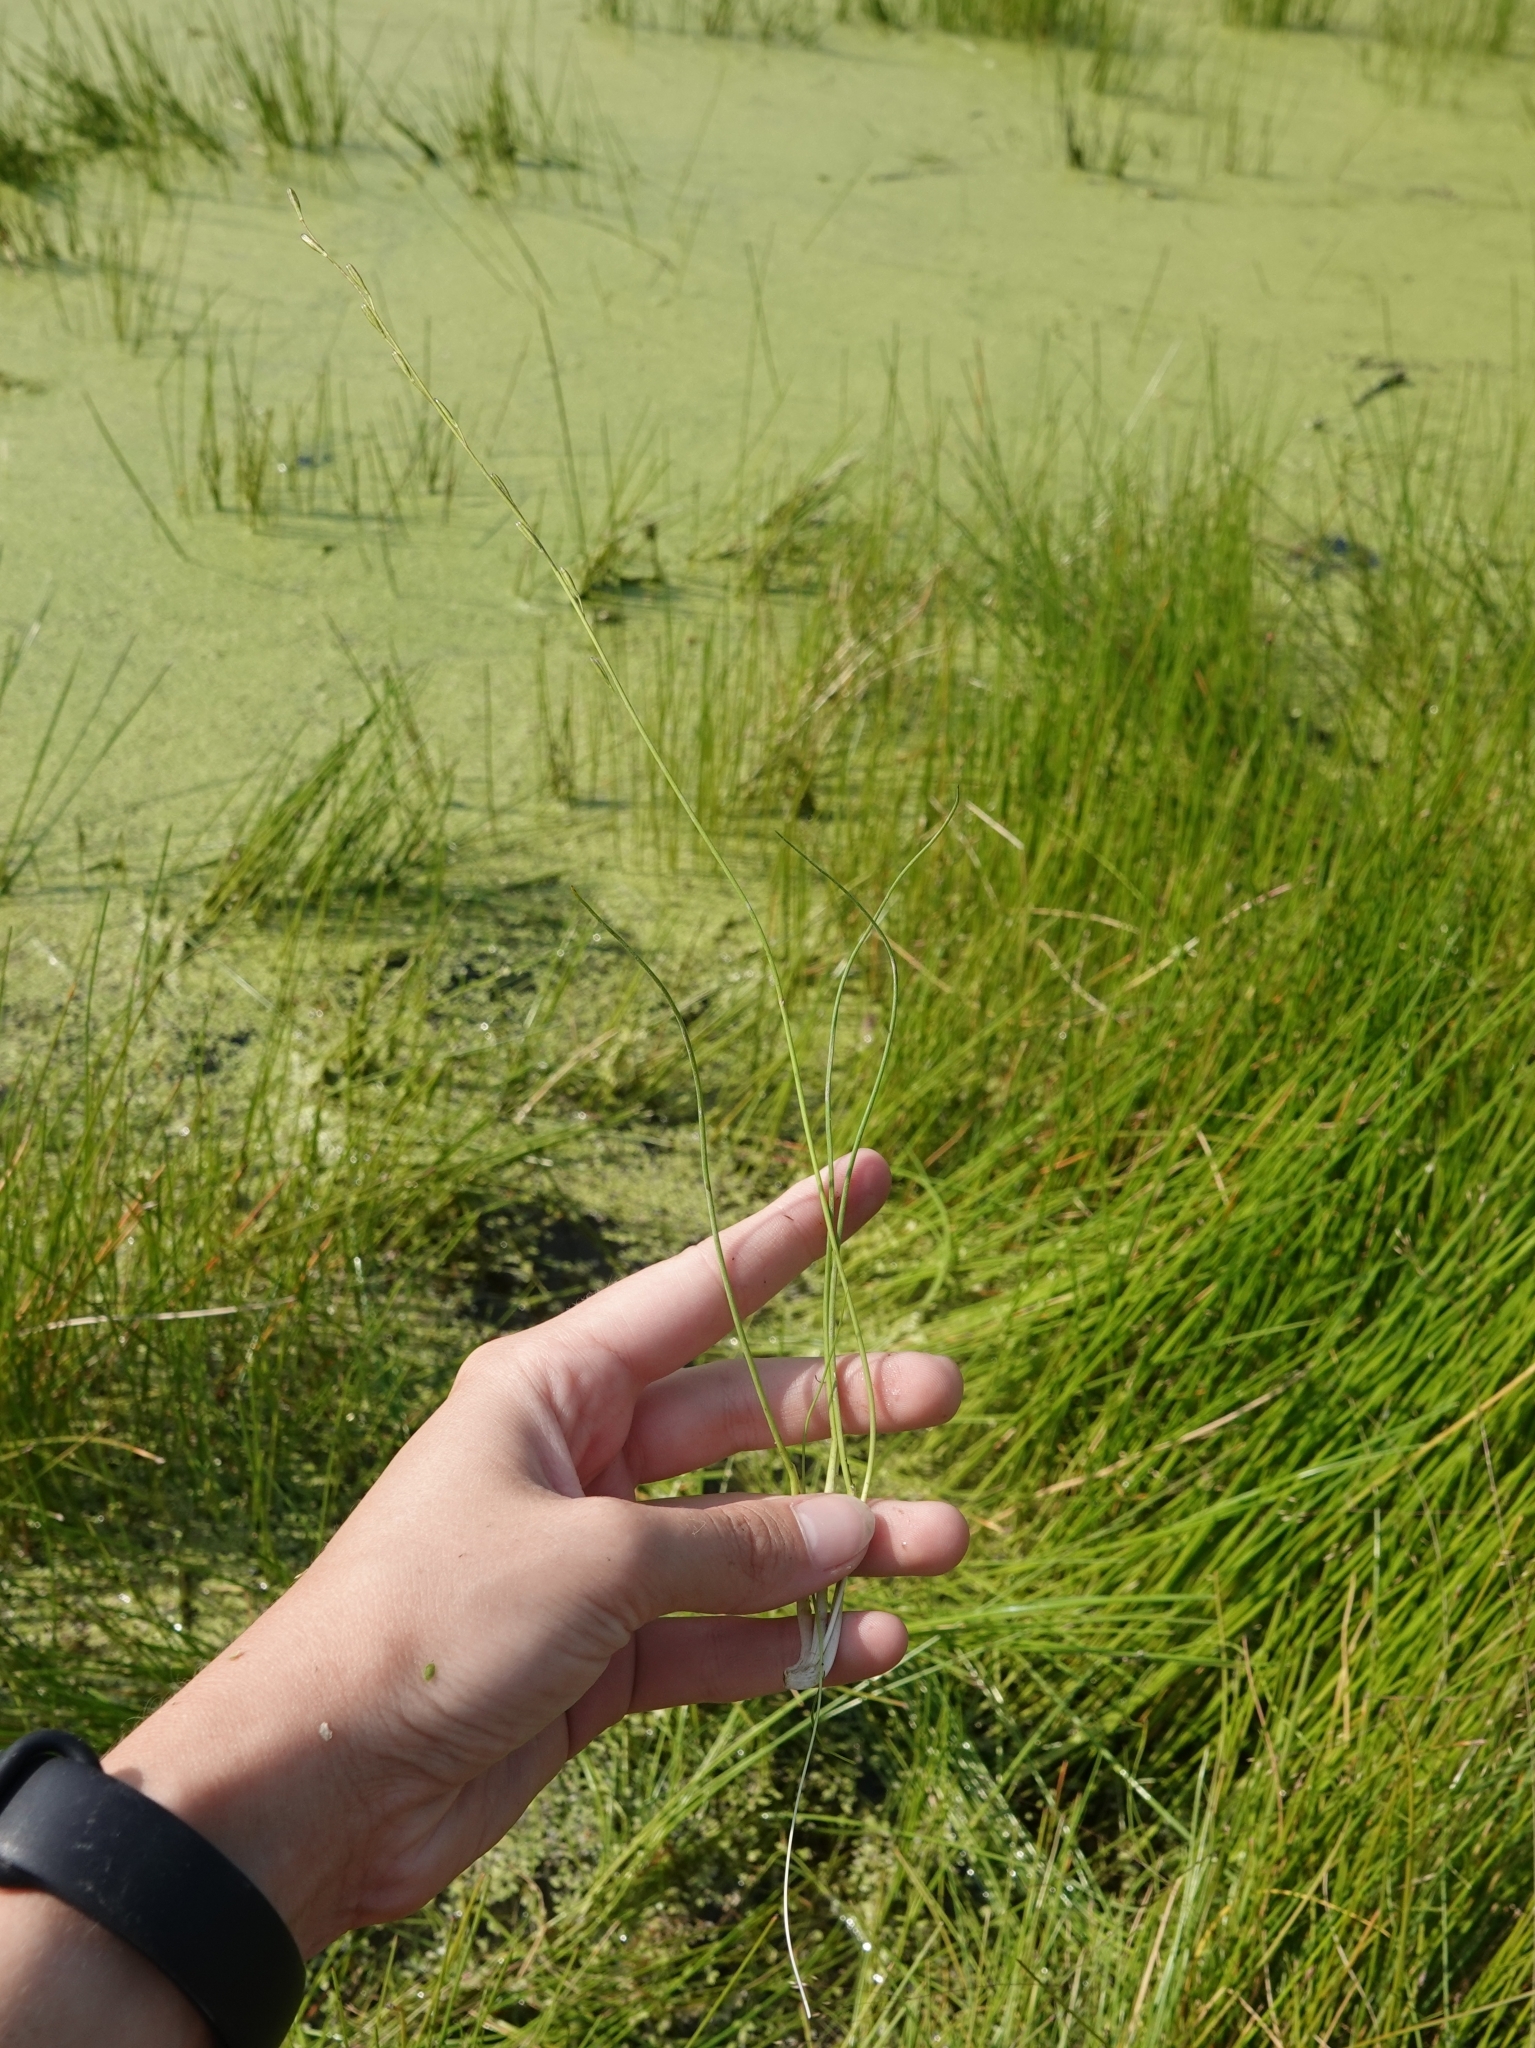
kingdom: Plantae
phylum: Tracheophyta
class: Liliopsida
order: Alismatales
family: Juncaginaceae
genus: Triglochin
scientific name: Triglochin palustris
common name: Marsh arrowgrass
